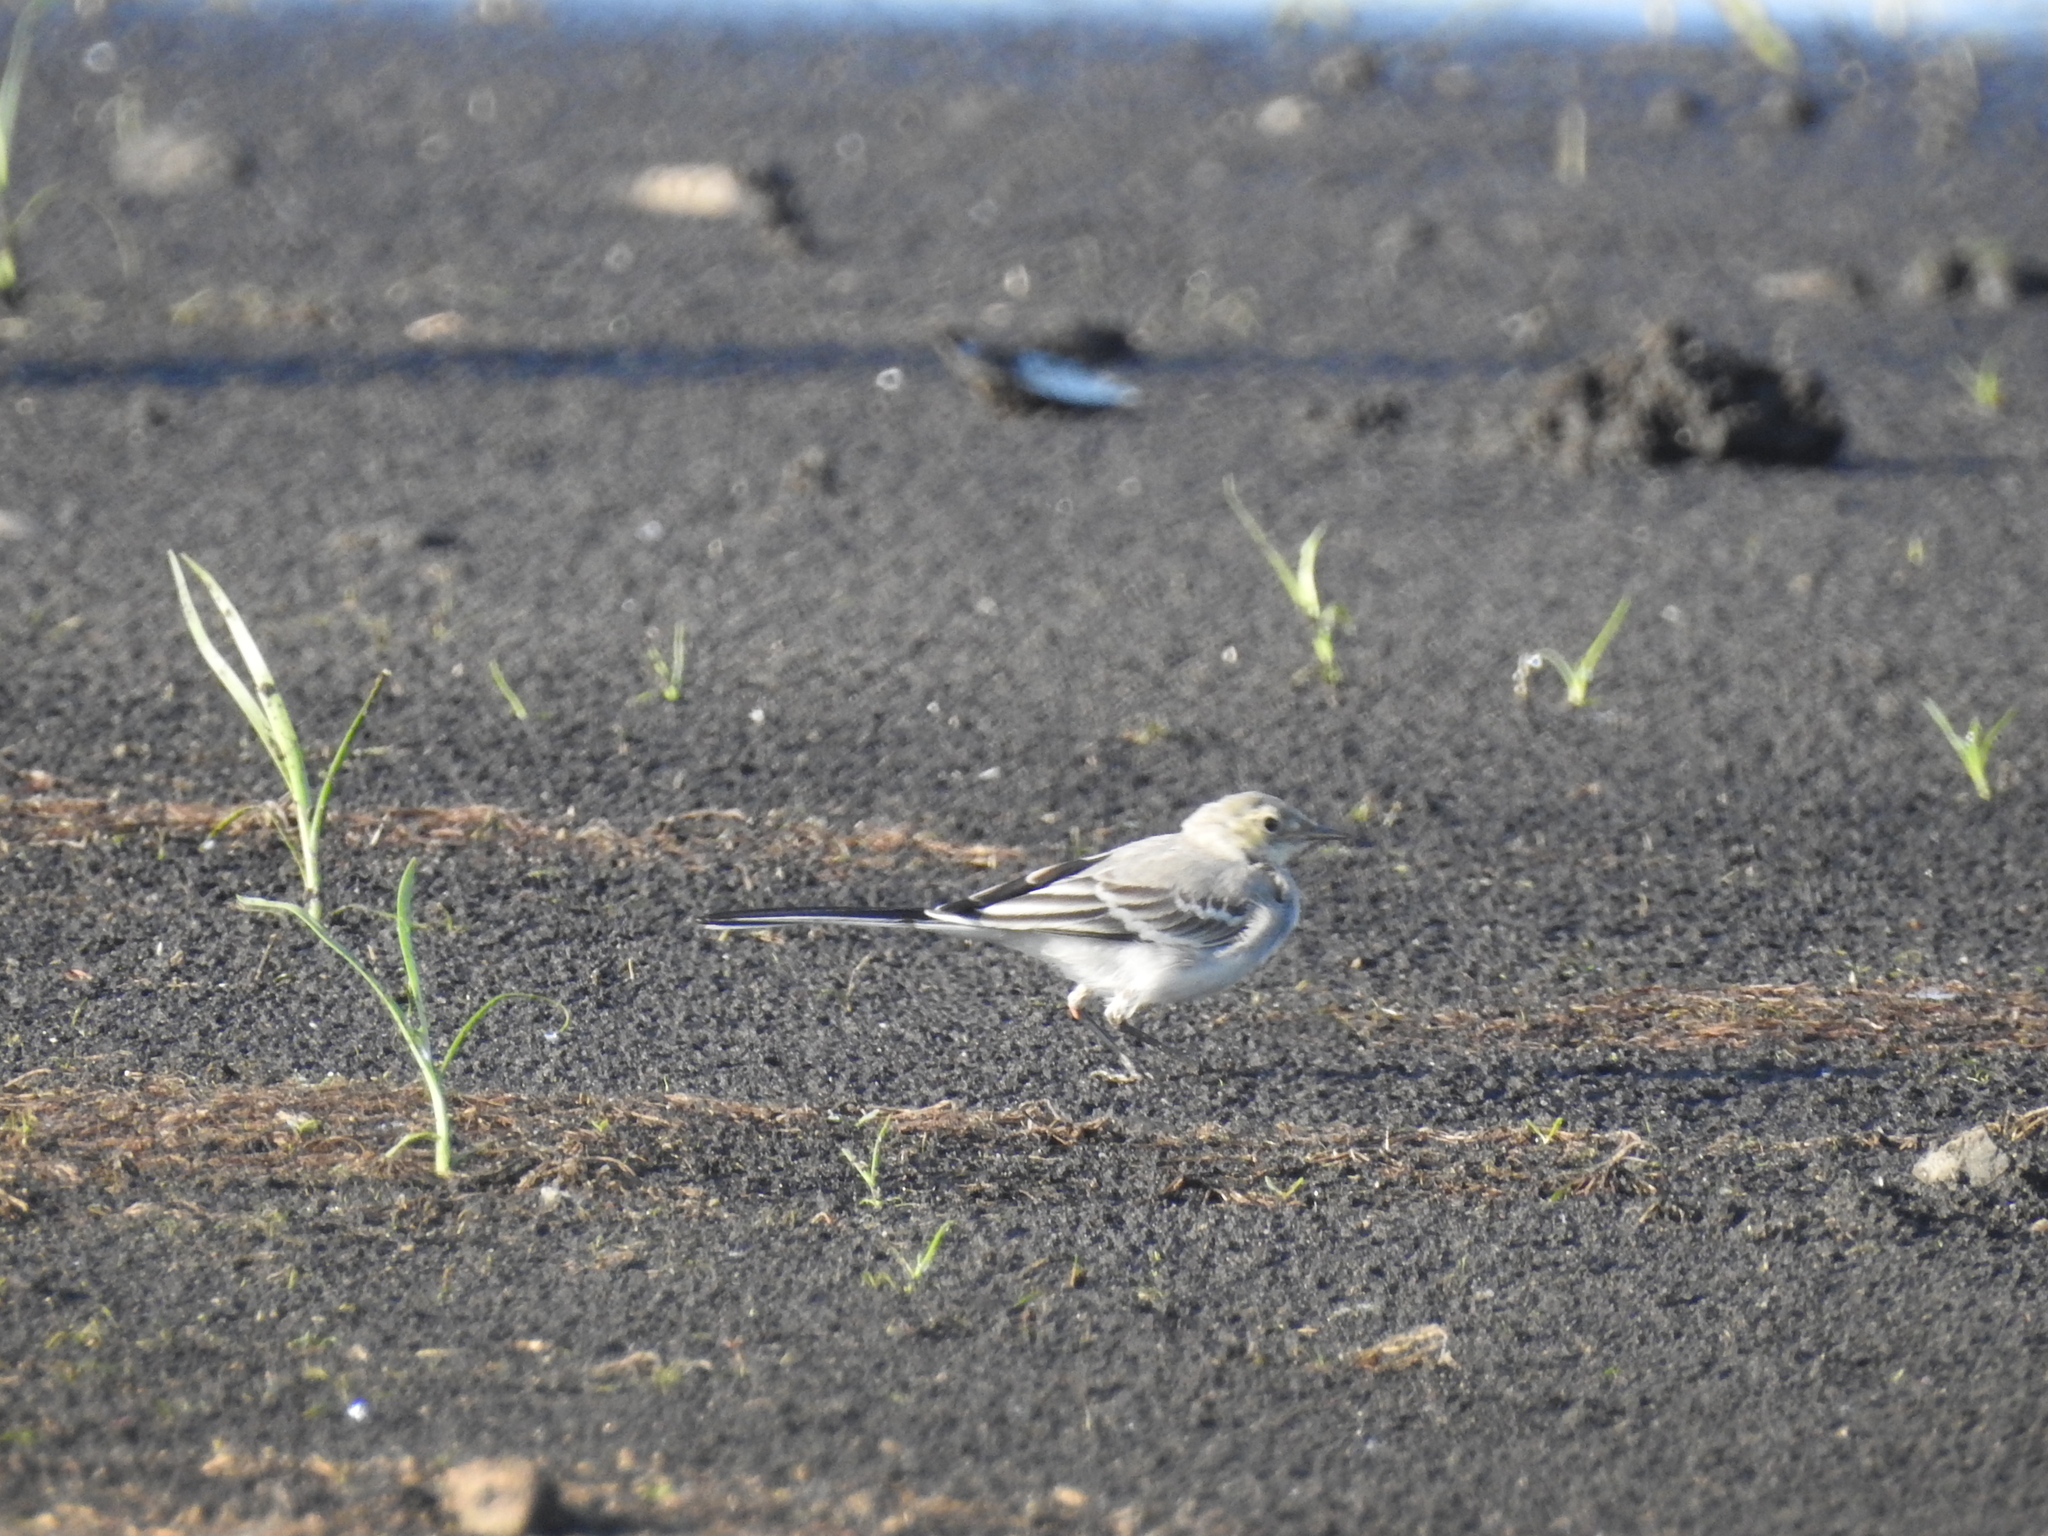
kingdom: Animalia
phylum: Chordata
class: Aves
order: Passeriformes
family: Motacillidae
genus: Motacilla
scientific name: Motacilla alba
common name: White wagtail
